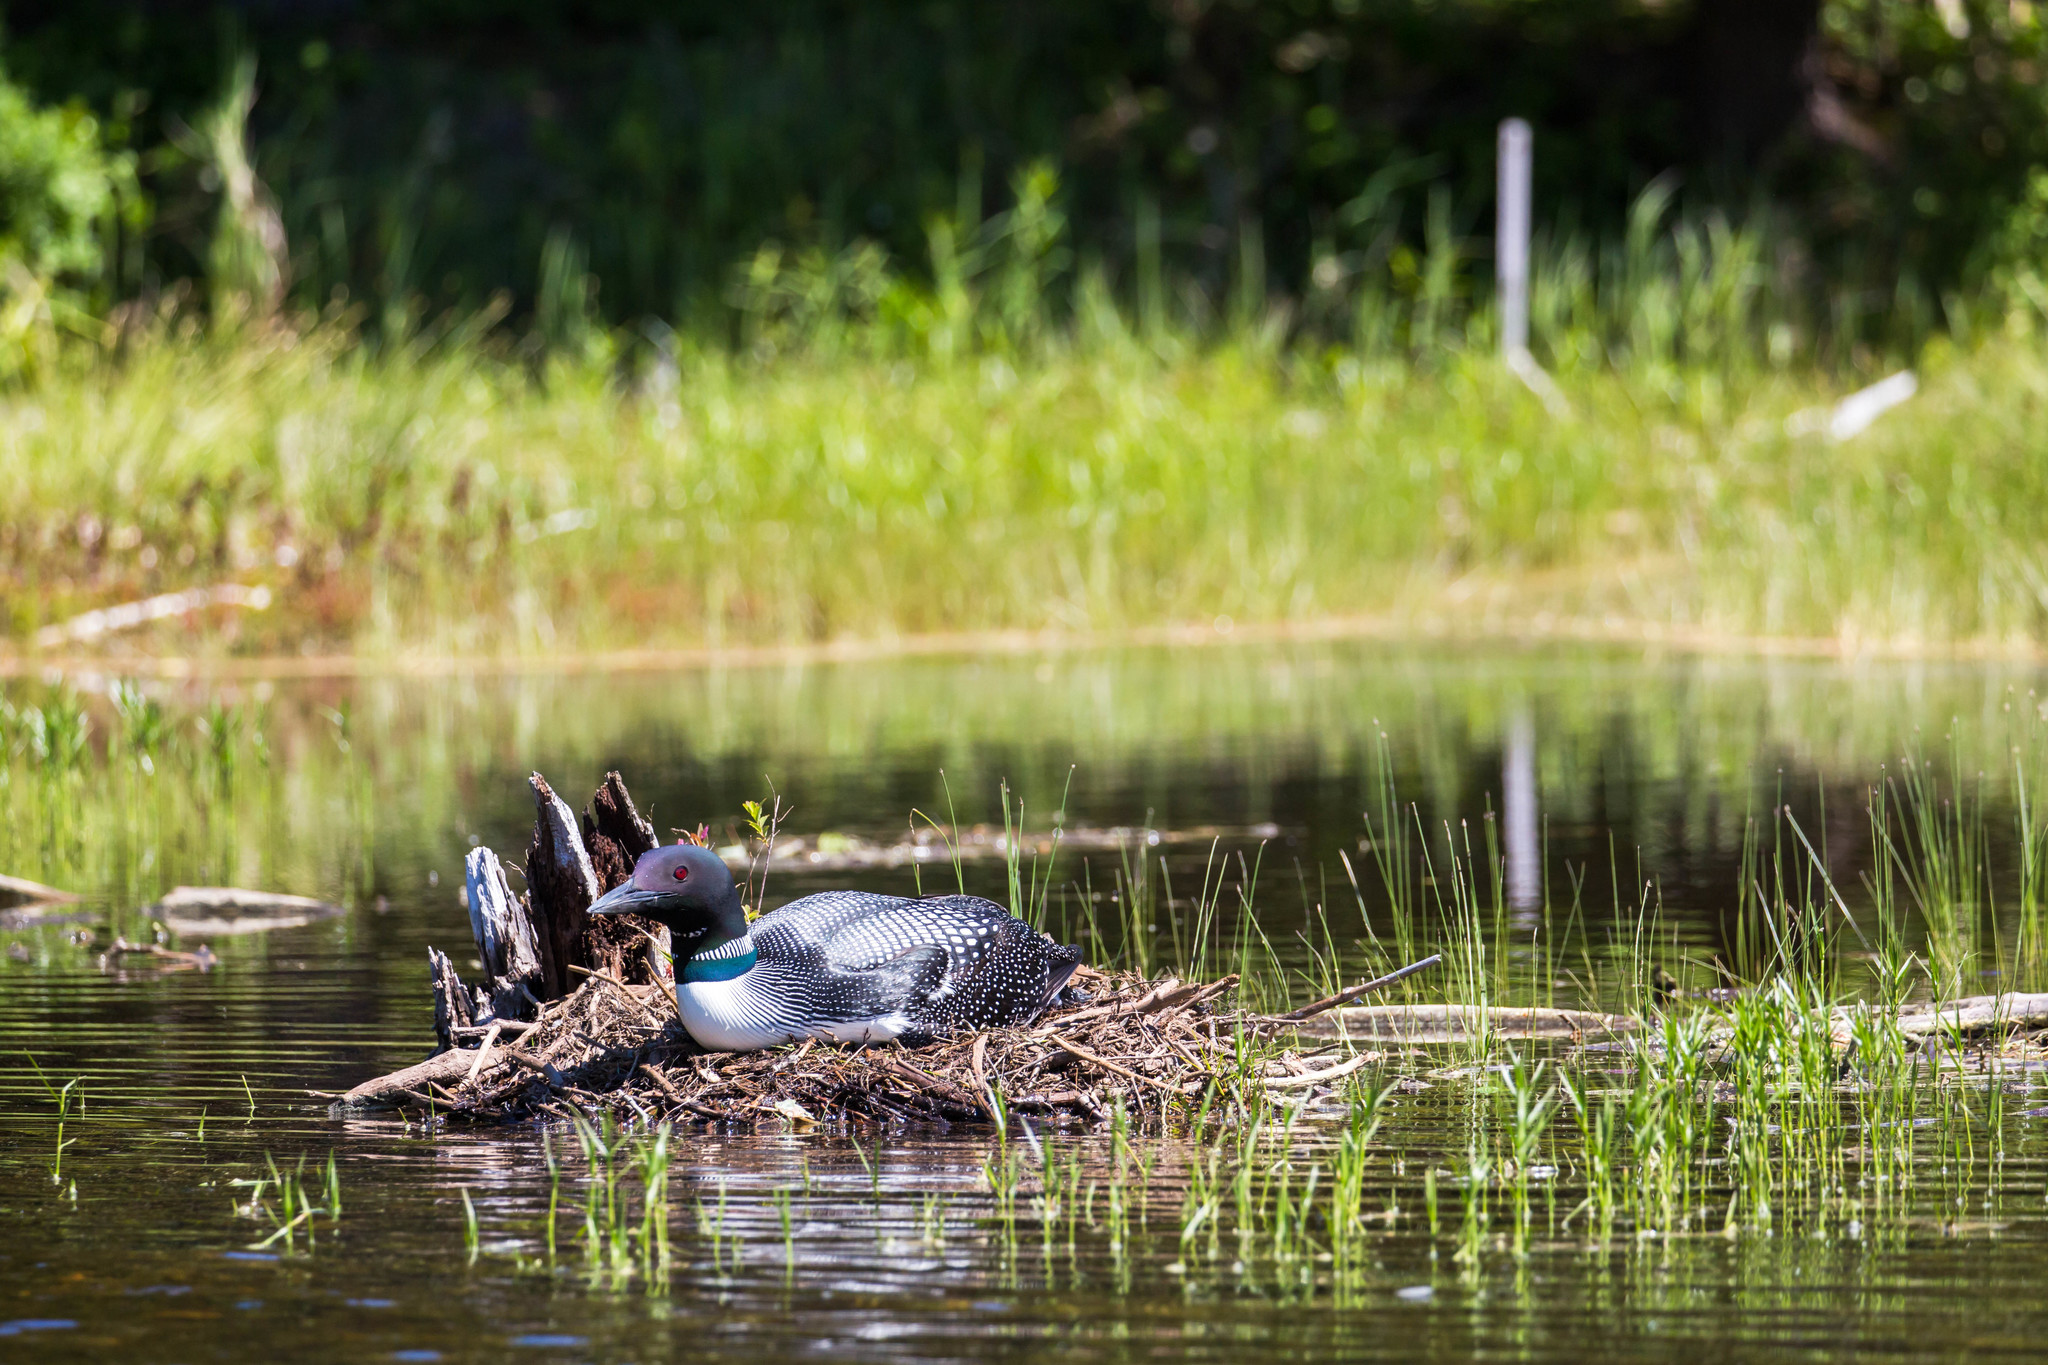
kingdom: Animalia
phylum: Chordata
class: Aves
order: Gaviiformes
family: Gaviidae
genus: Gavia
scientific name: Gavia immer
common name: Common loon
